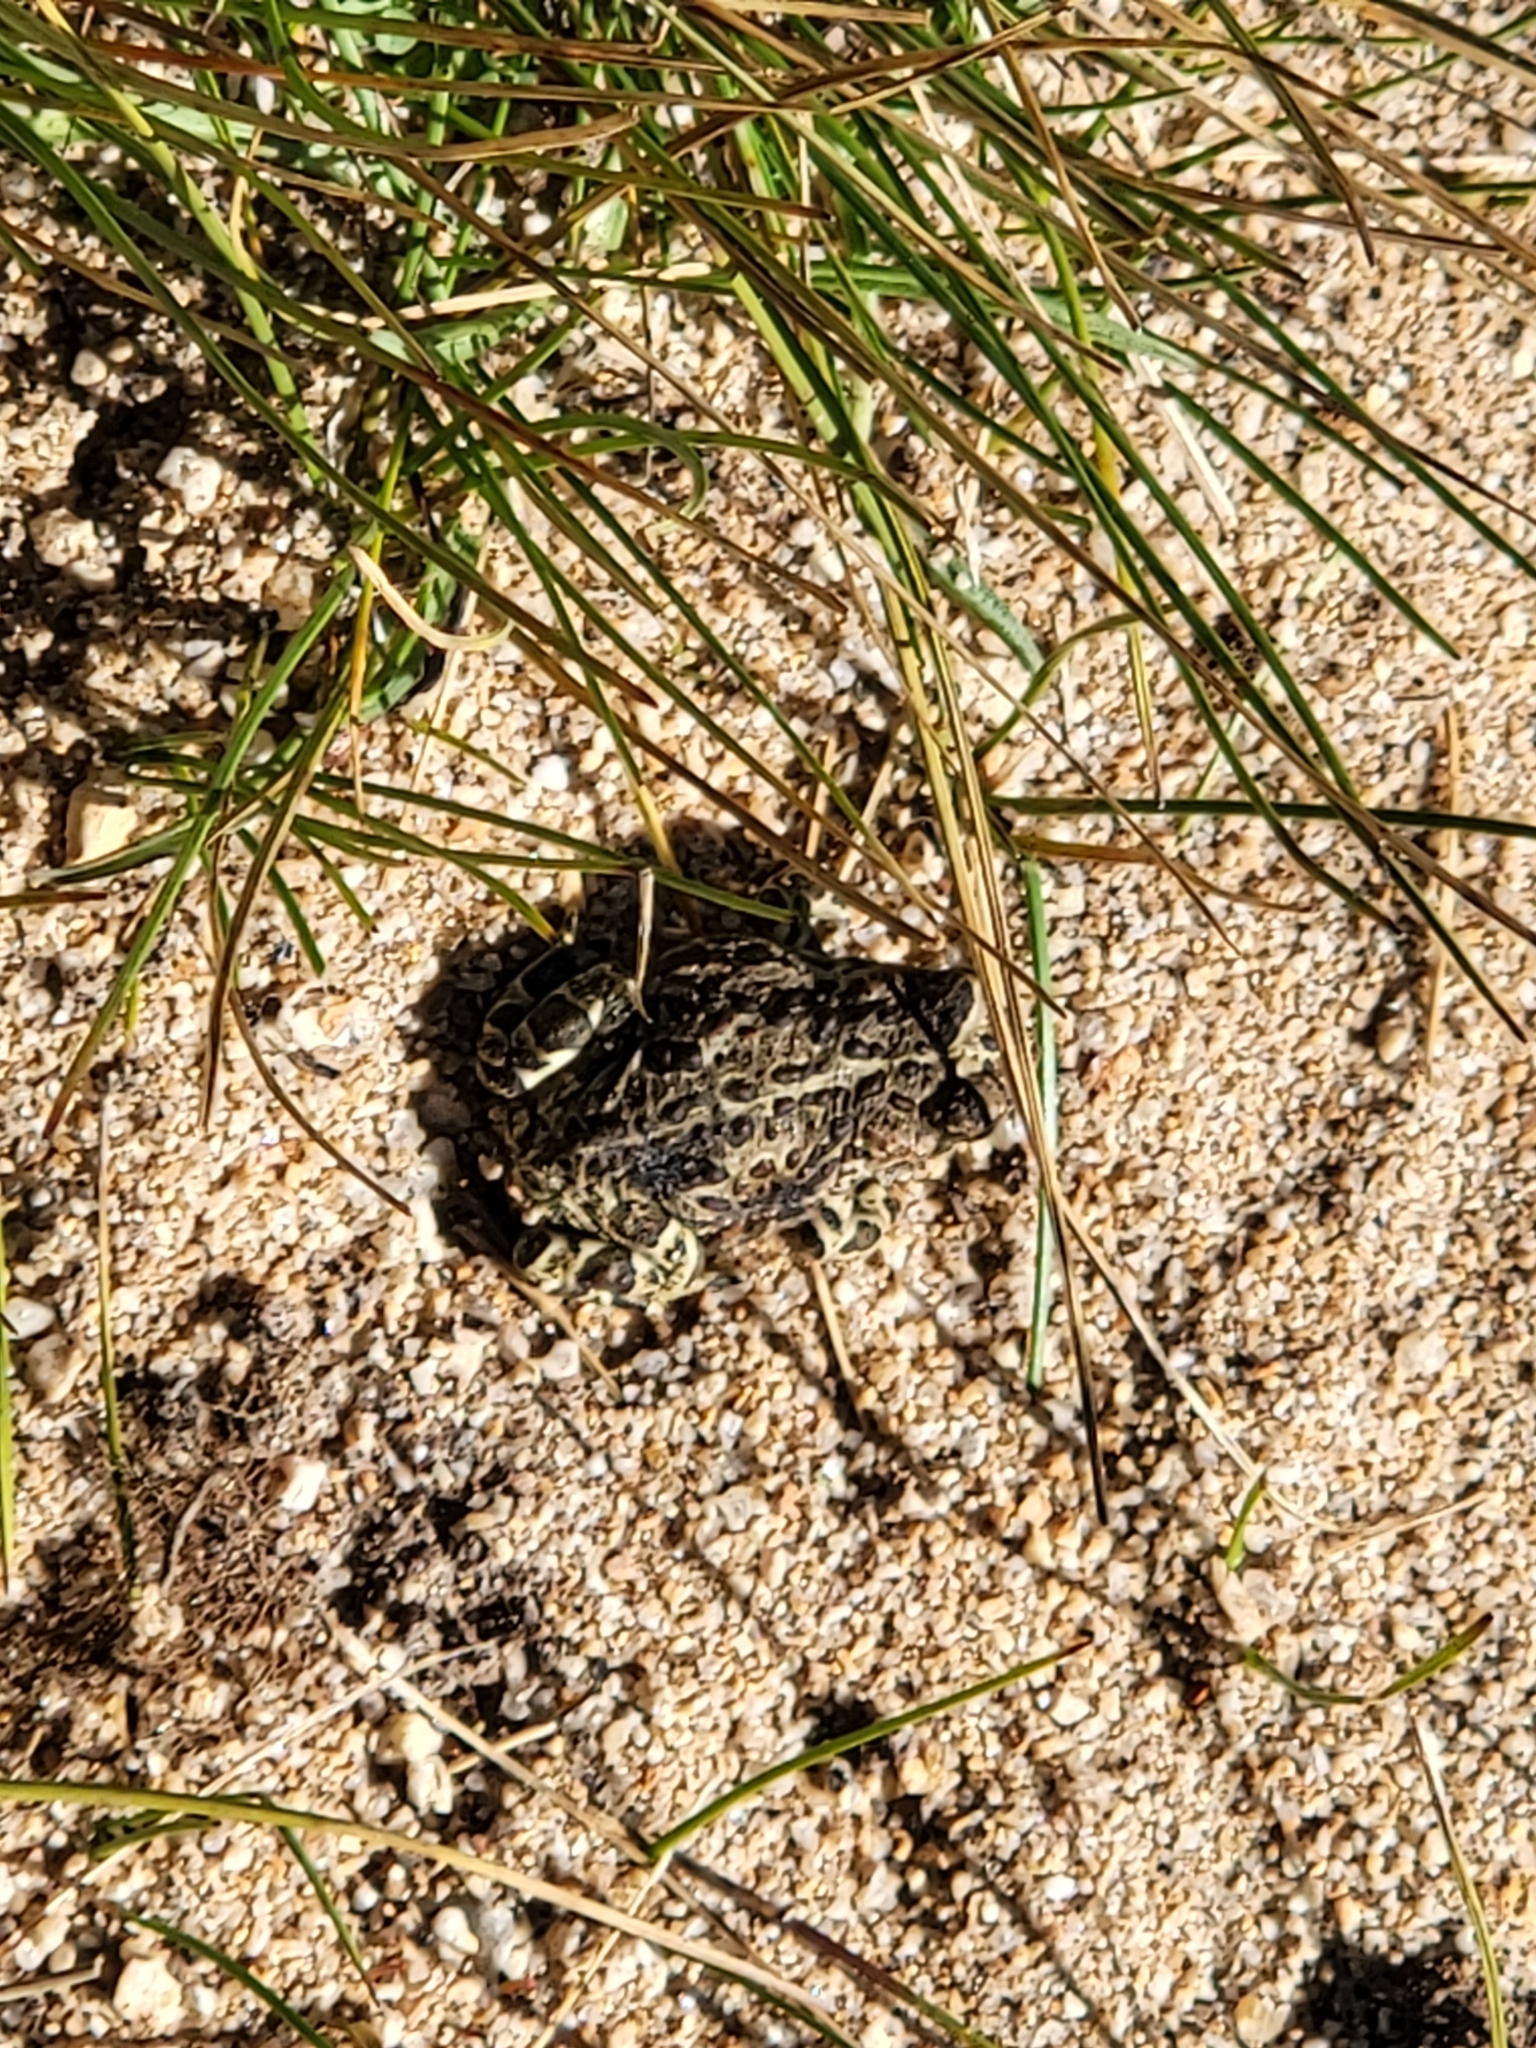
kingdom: Animalia
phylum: Chordata
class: Amphibia
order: Anura
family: Bufonidae
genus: Anaxyrus
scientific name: Anaxyrus boreas
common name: Western toad
